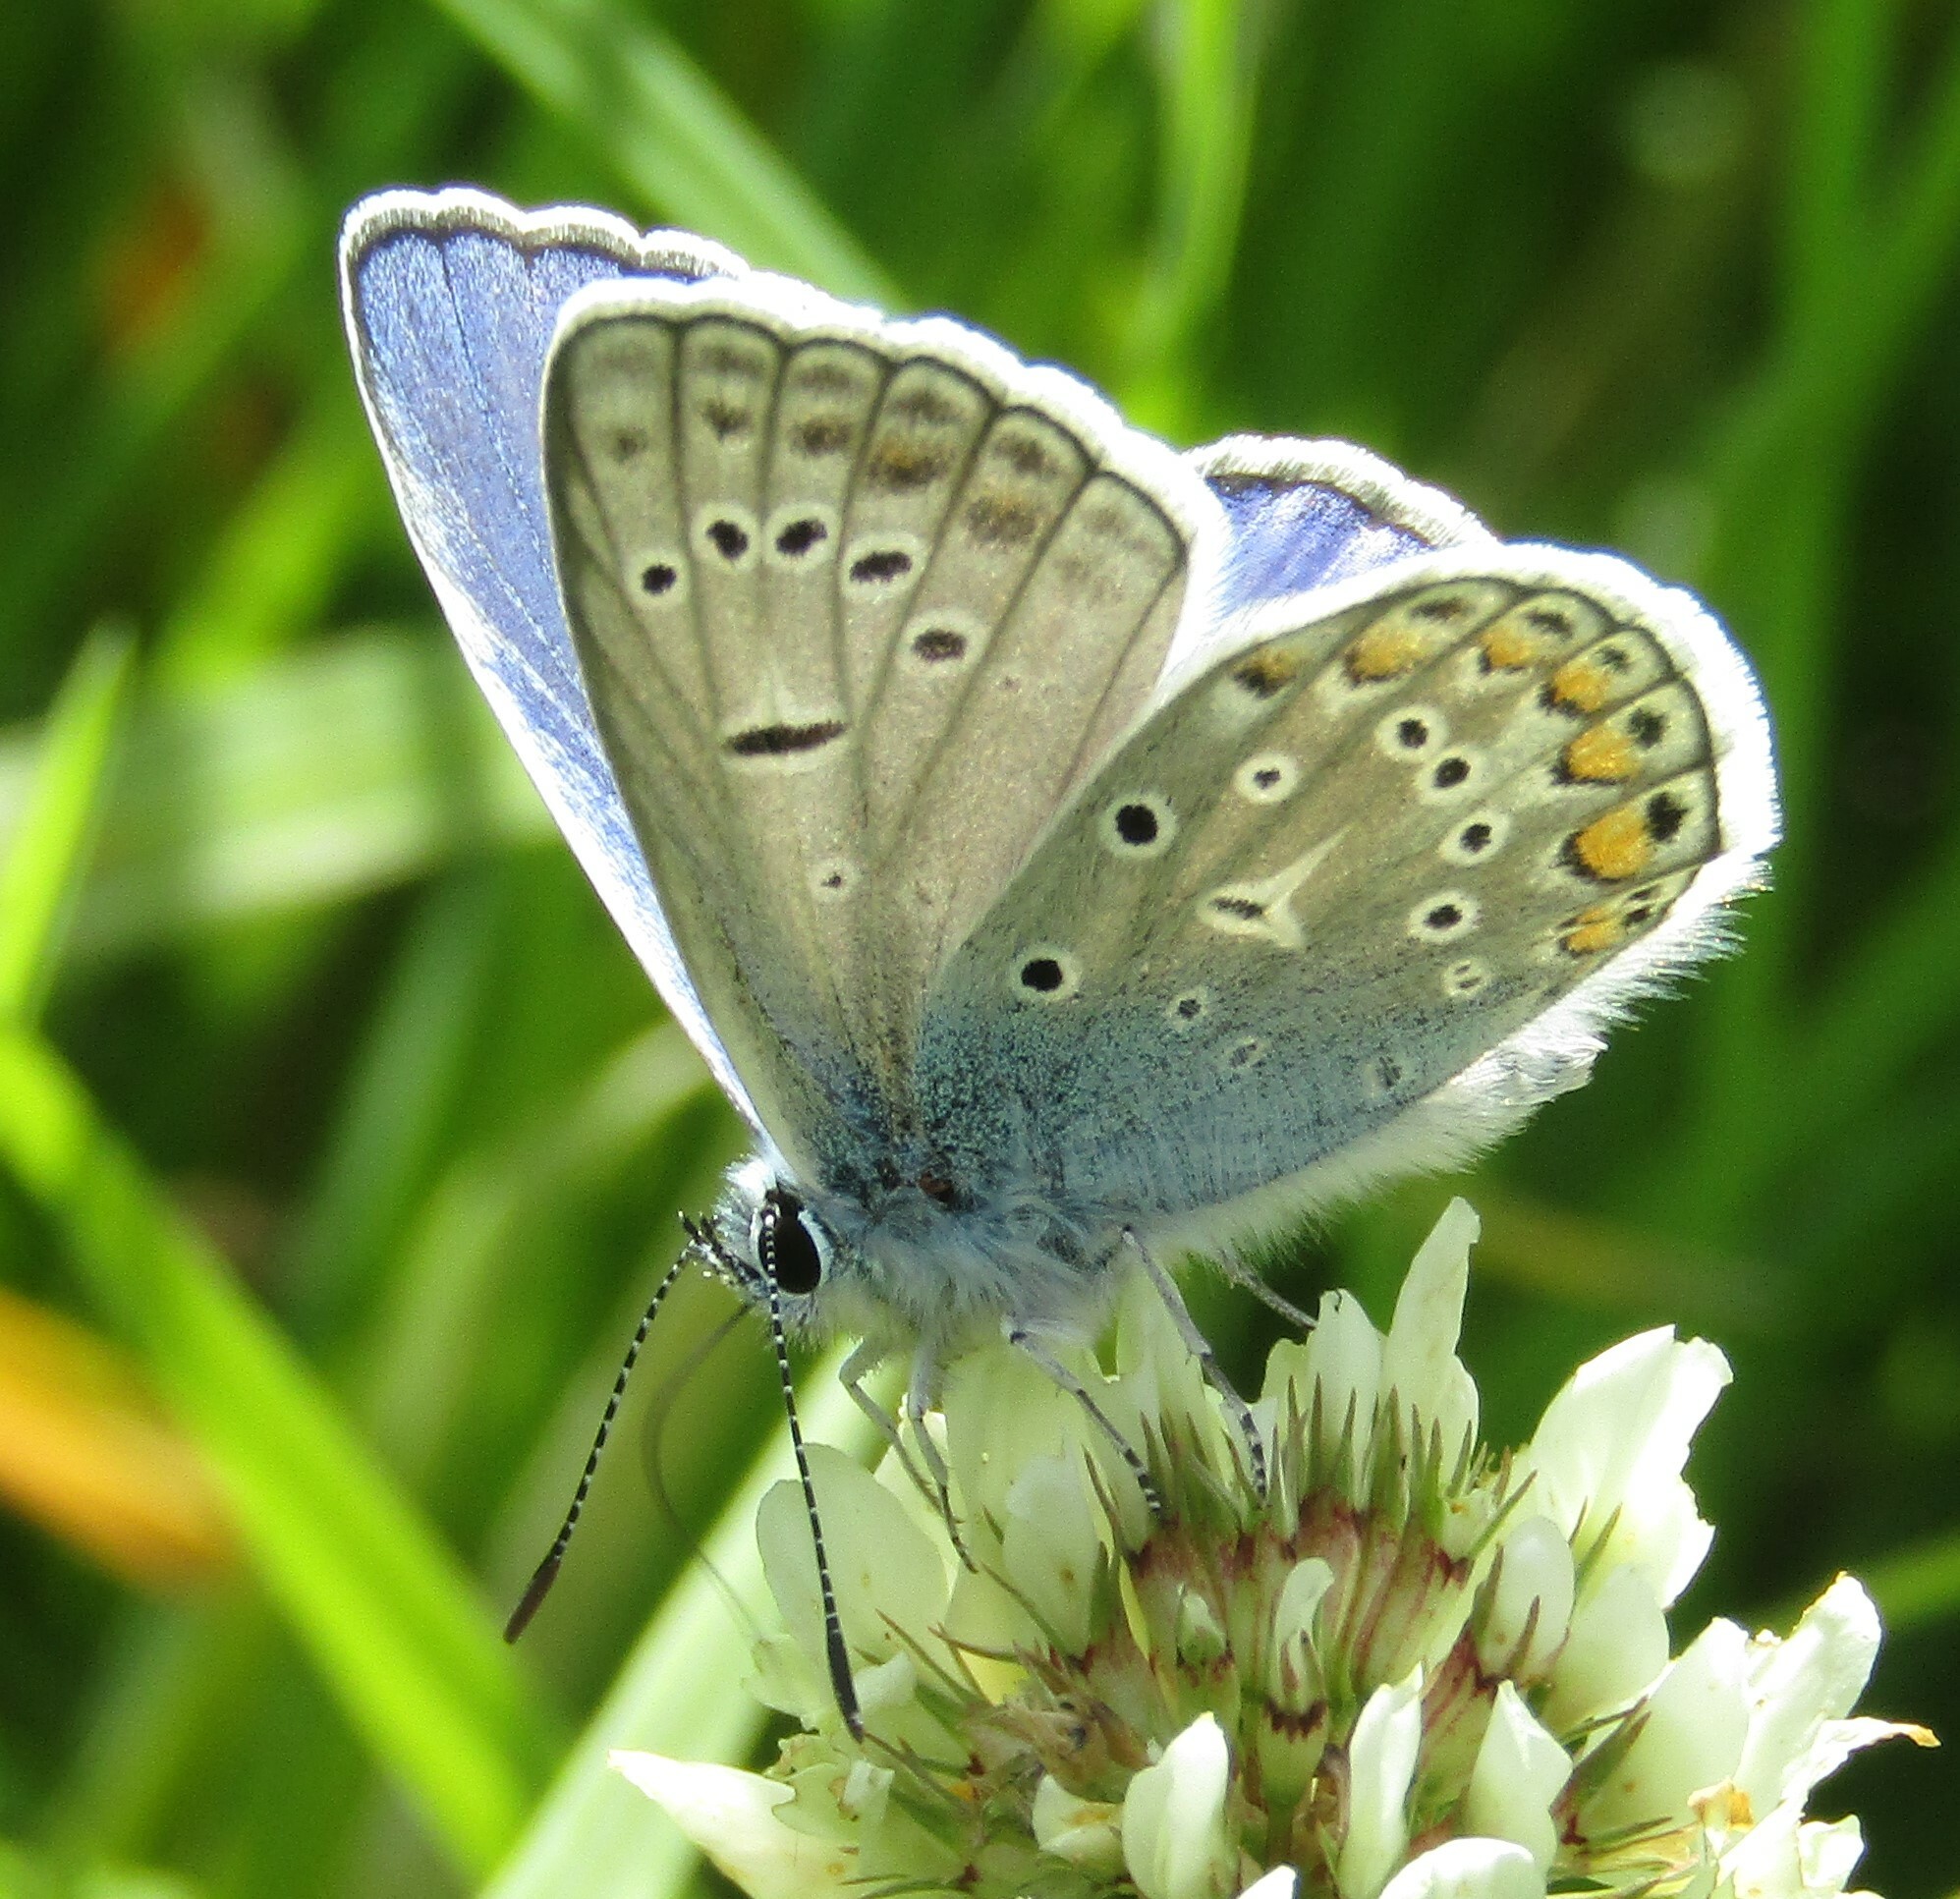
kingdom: Animalia
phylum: Arthropoda
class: Insecta
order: Lepidoptera
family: Lycaenidae
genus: Polyommatus
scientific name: Polyommatus icarus
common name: Common blue
